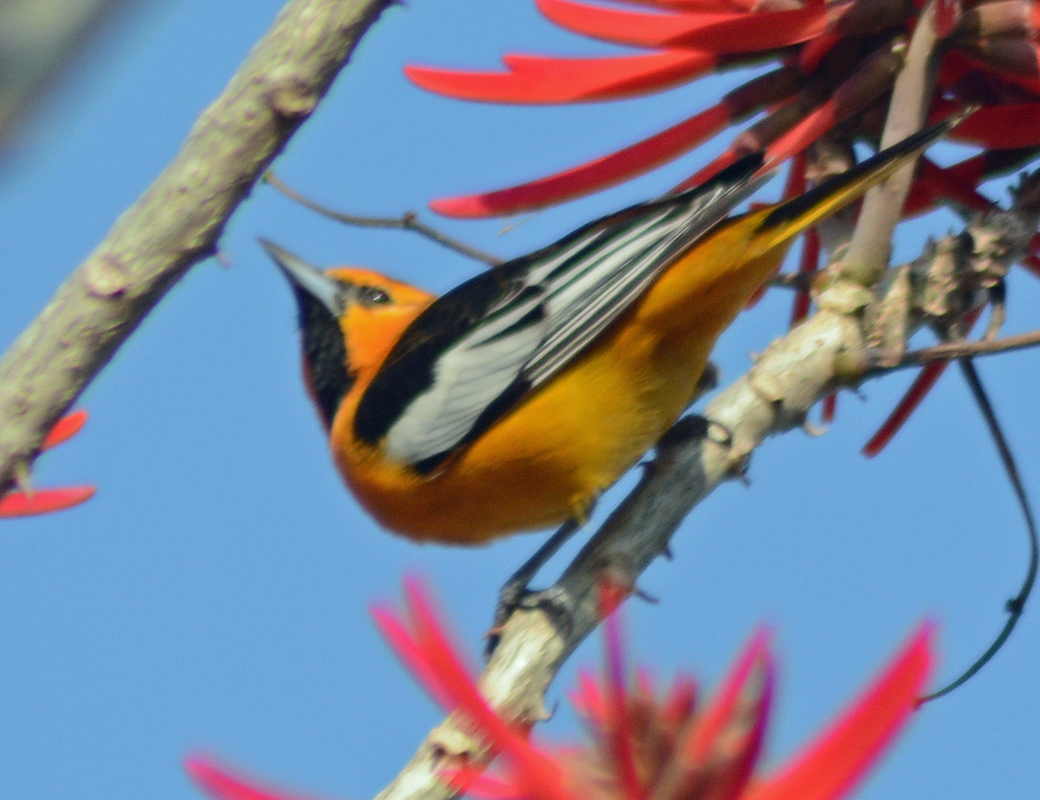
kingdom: Animalia
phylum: Chordata
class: Aves
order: Passeriformes
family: Icteridae
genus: Icterus
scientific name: Icterus bullockii
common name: Bullock's oriole
